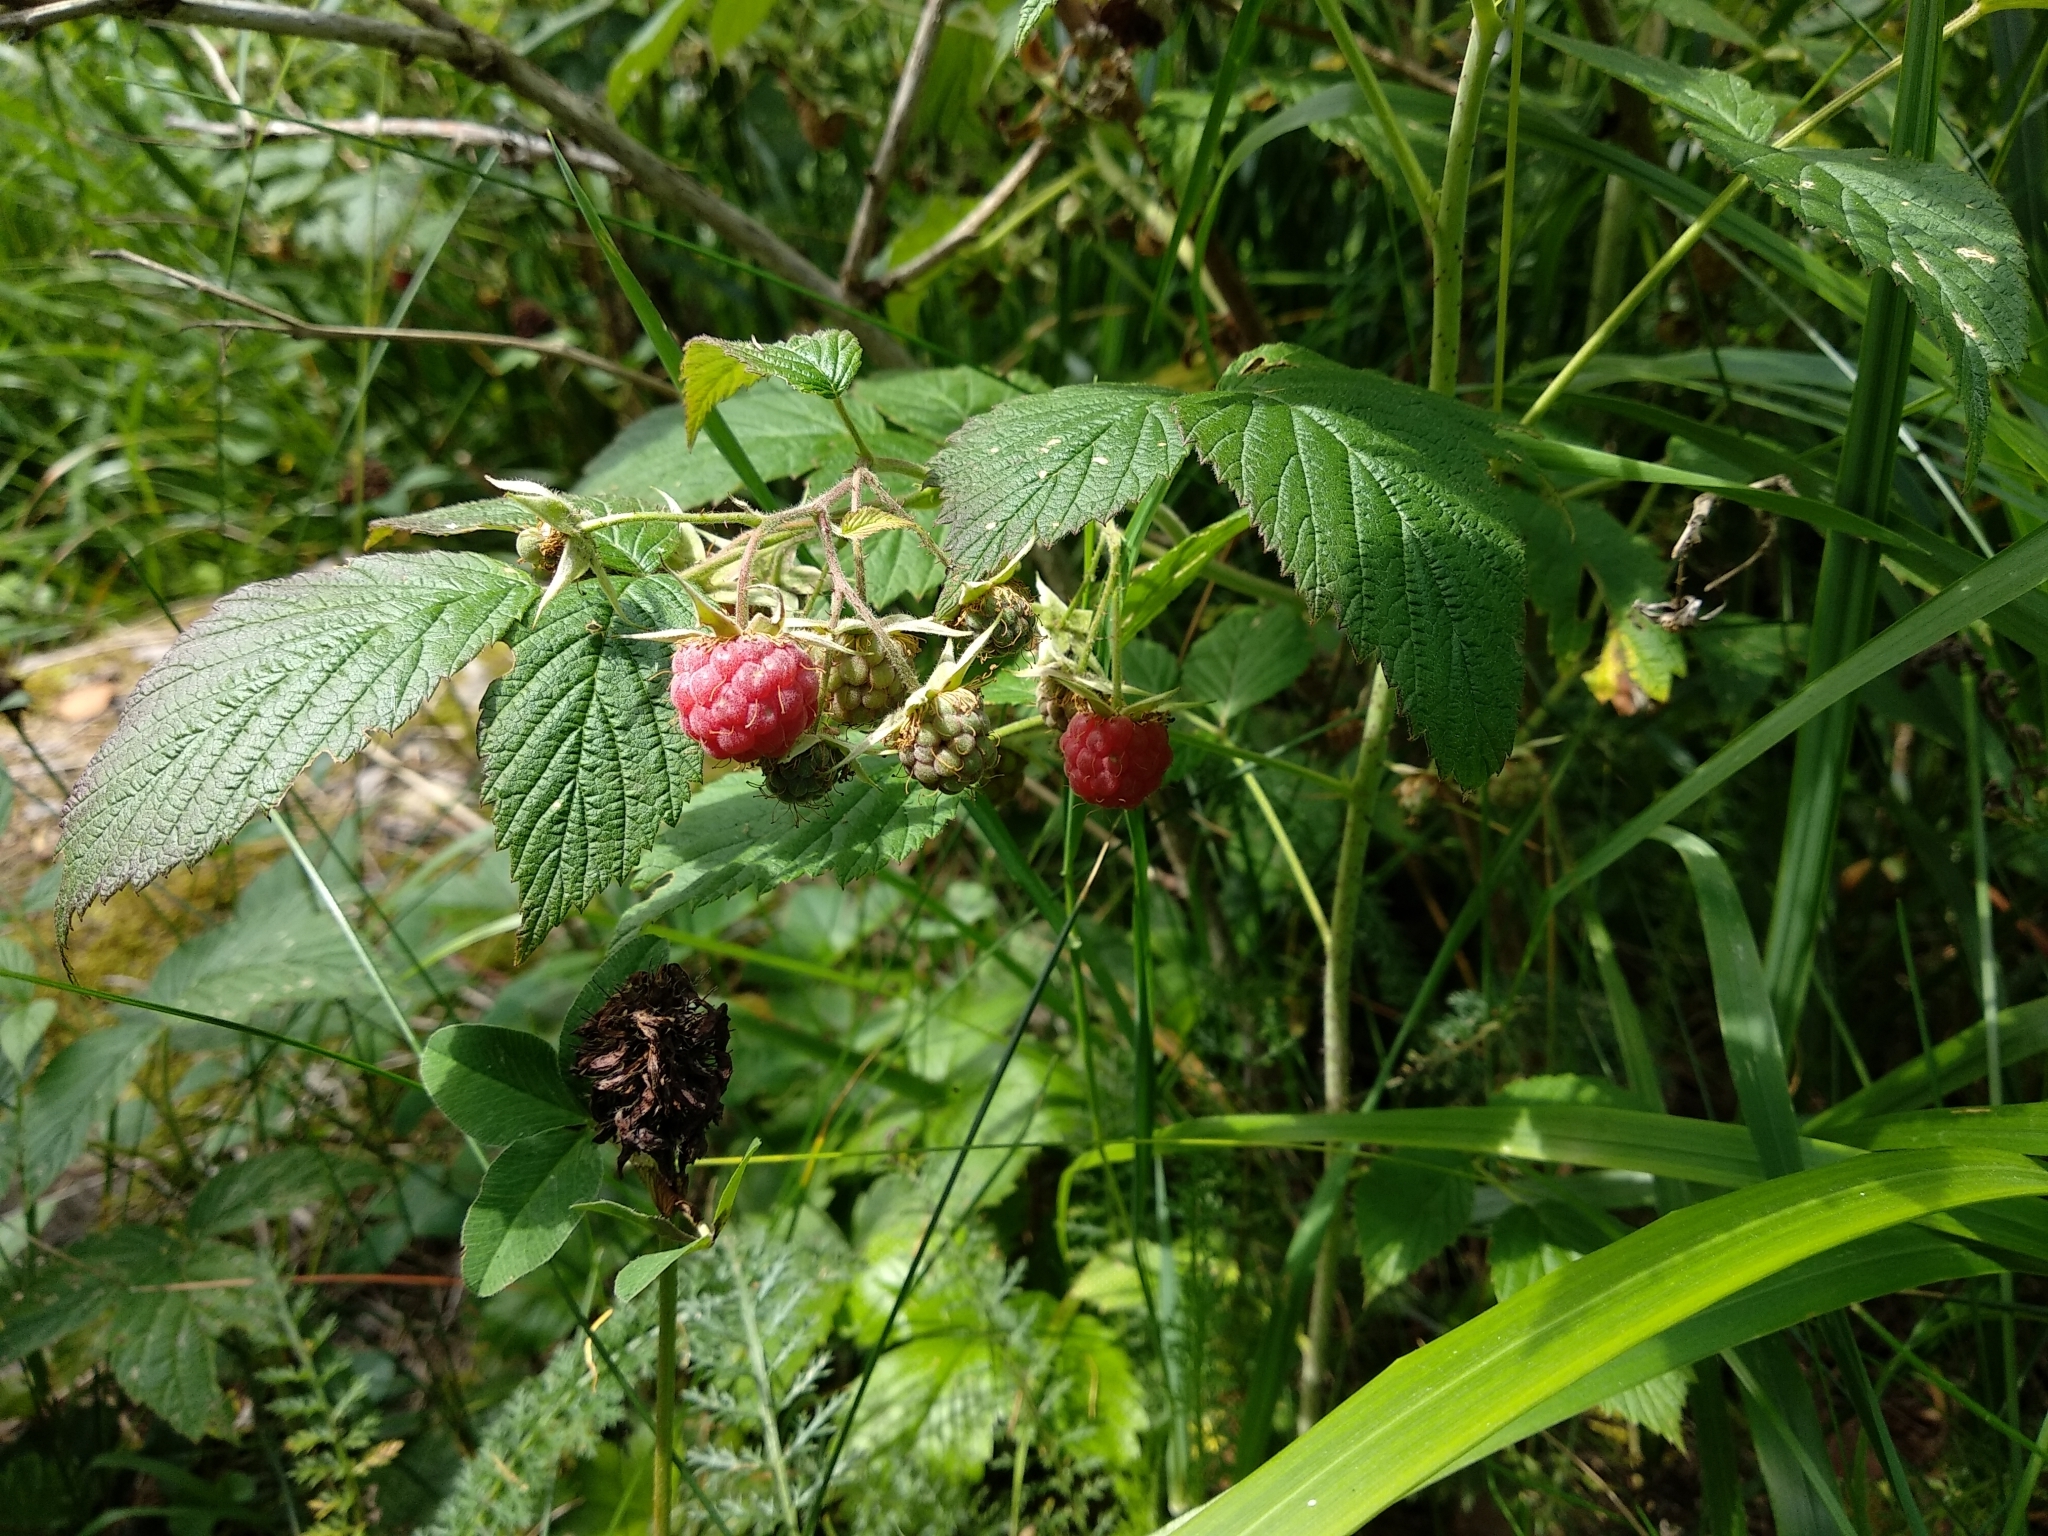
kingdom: Plantae
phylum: Tracheophyta
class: Magnoliopsida
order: Rosales
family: Rosaceae
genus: Rubus
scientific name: Rubus idaeus
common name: Raspberry
